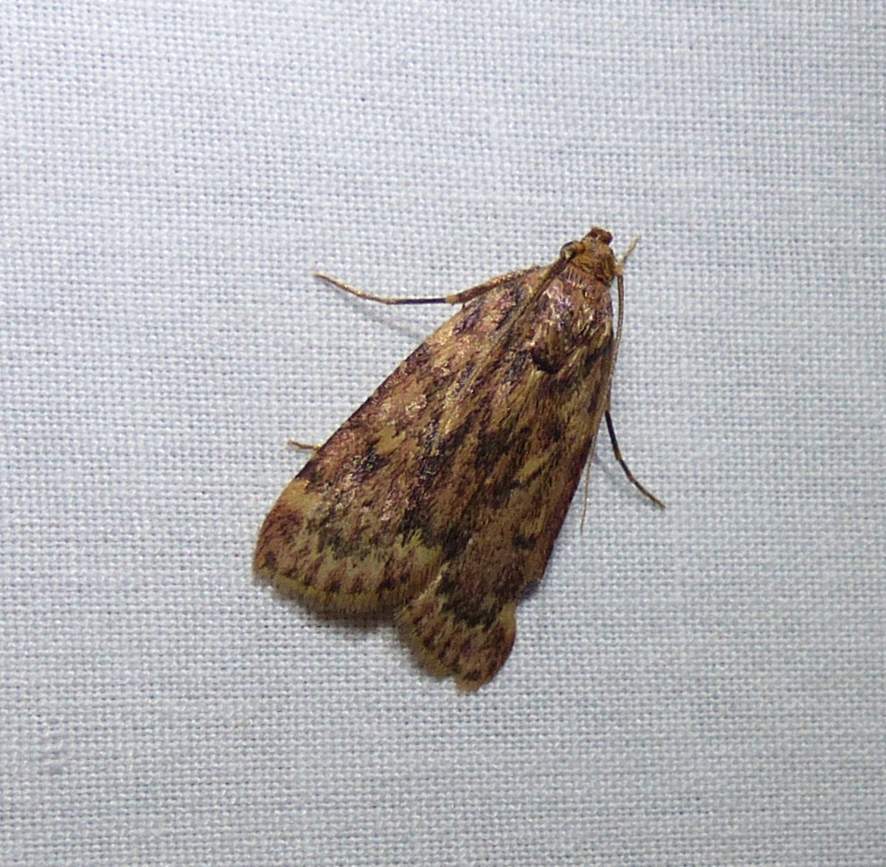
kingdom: Animalia
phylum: Arthropoda
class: Insecta
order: Lepidoptera
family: Pyralidae
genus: Aglossa
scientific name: Aglossa cuprina
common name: Grease moth
